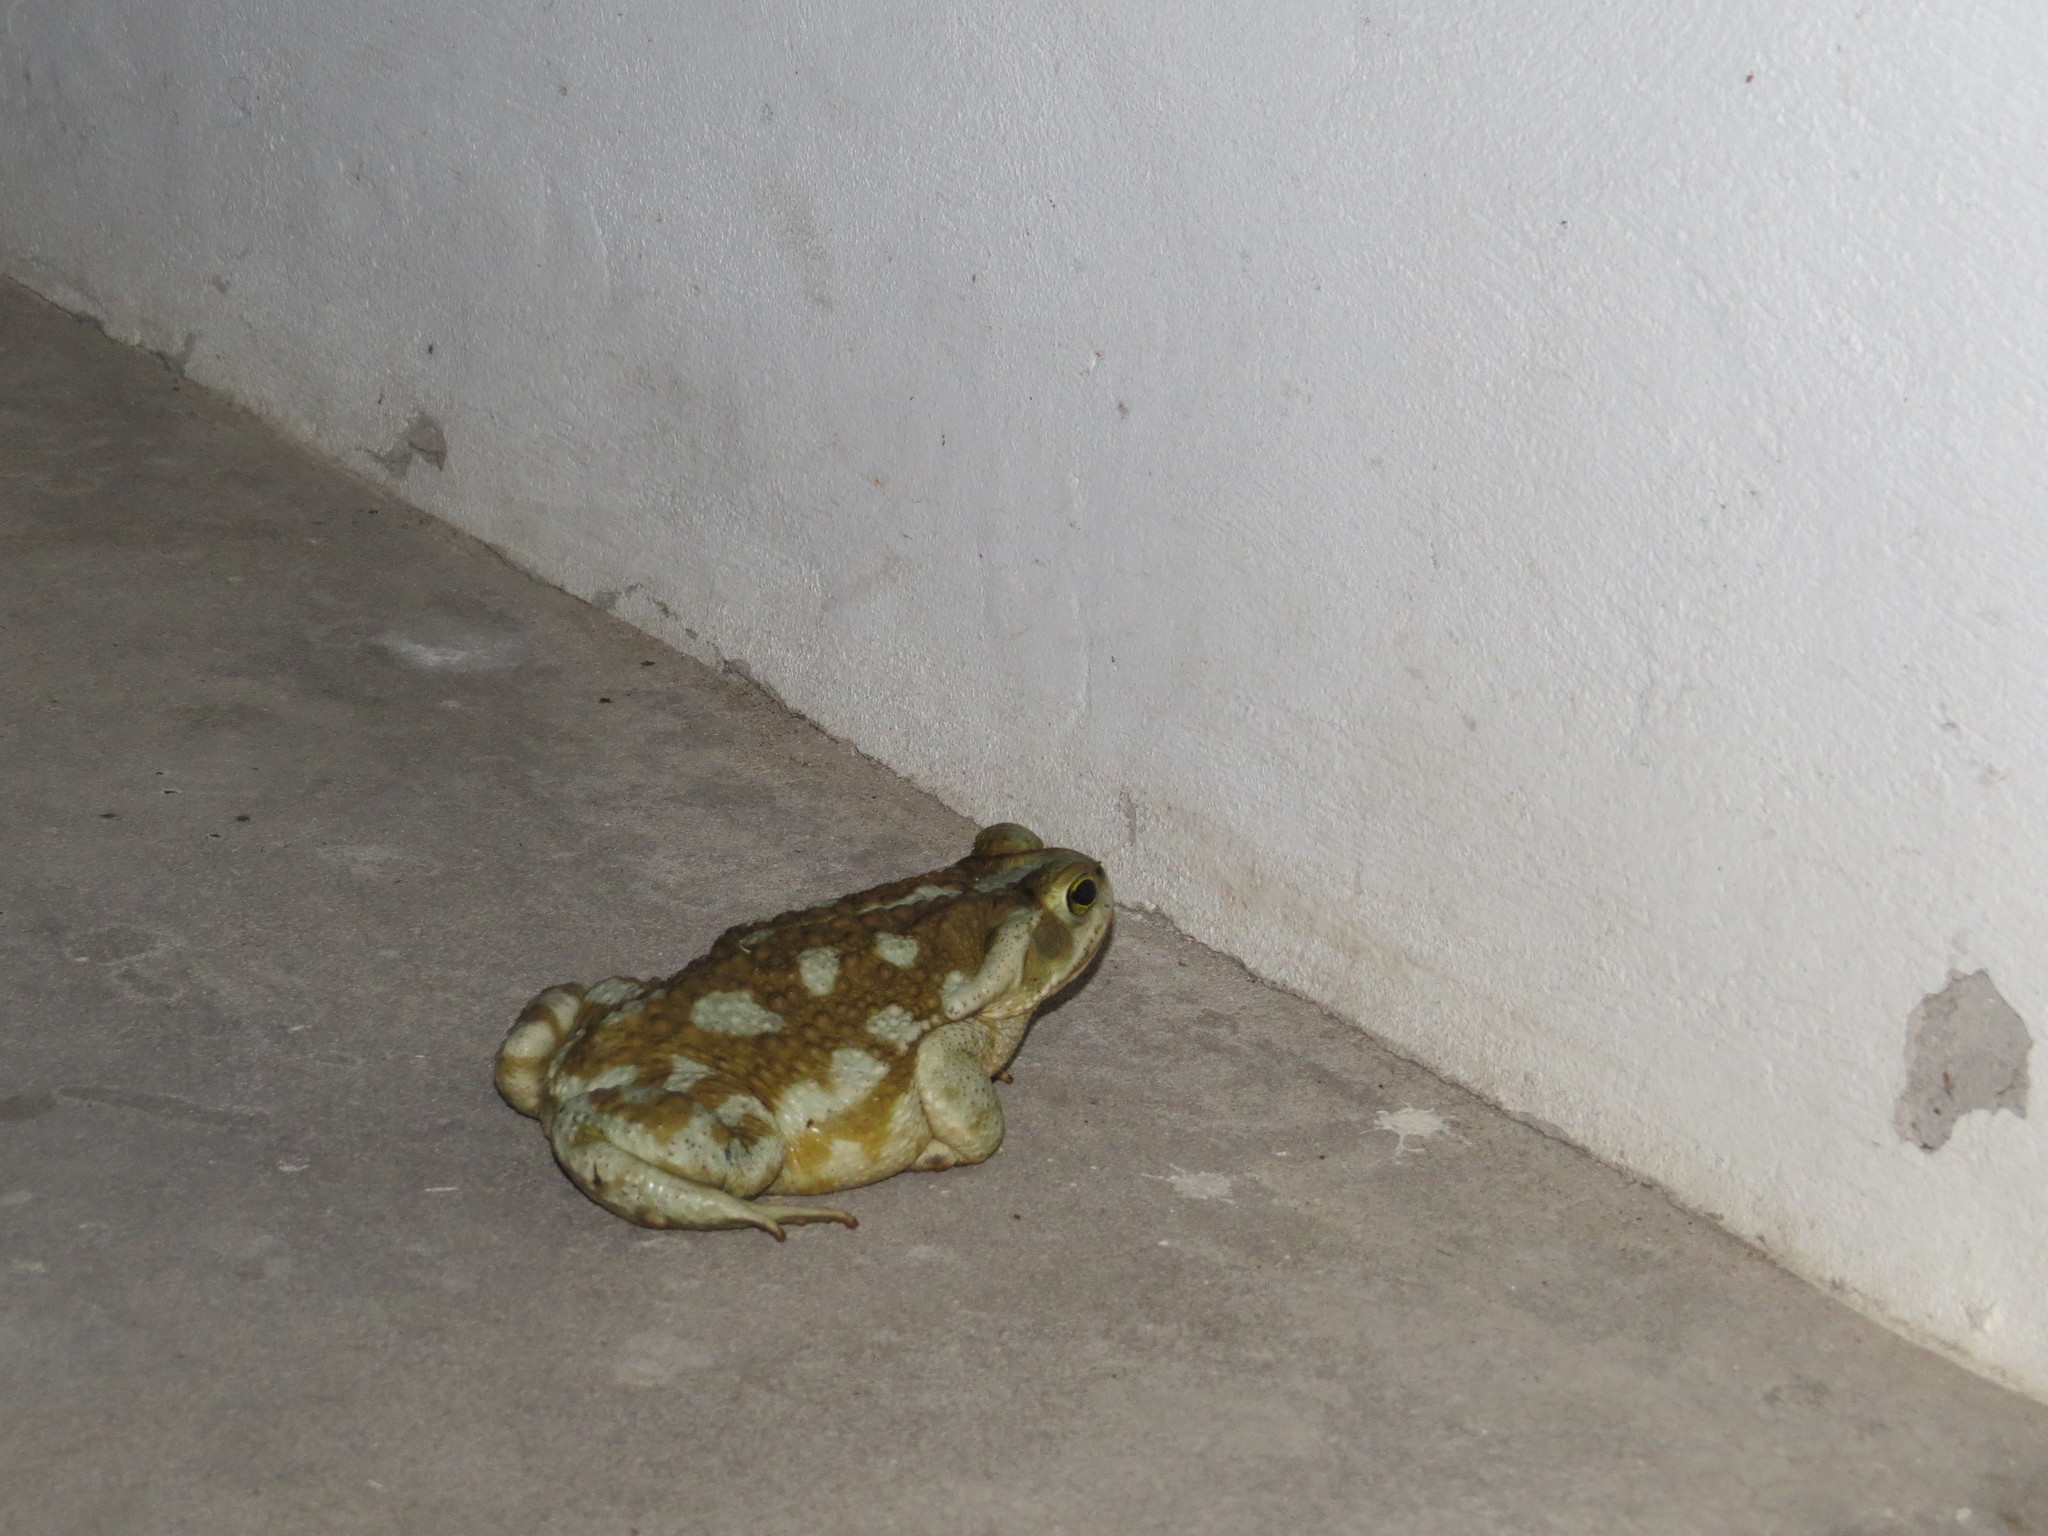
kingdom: Animalia
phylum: Chordata
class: Amphibia
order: Anura
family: Bufonidae
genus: Rhinella
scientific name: Rhinella arenarum
